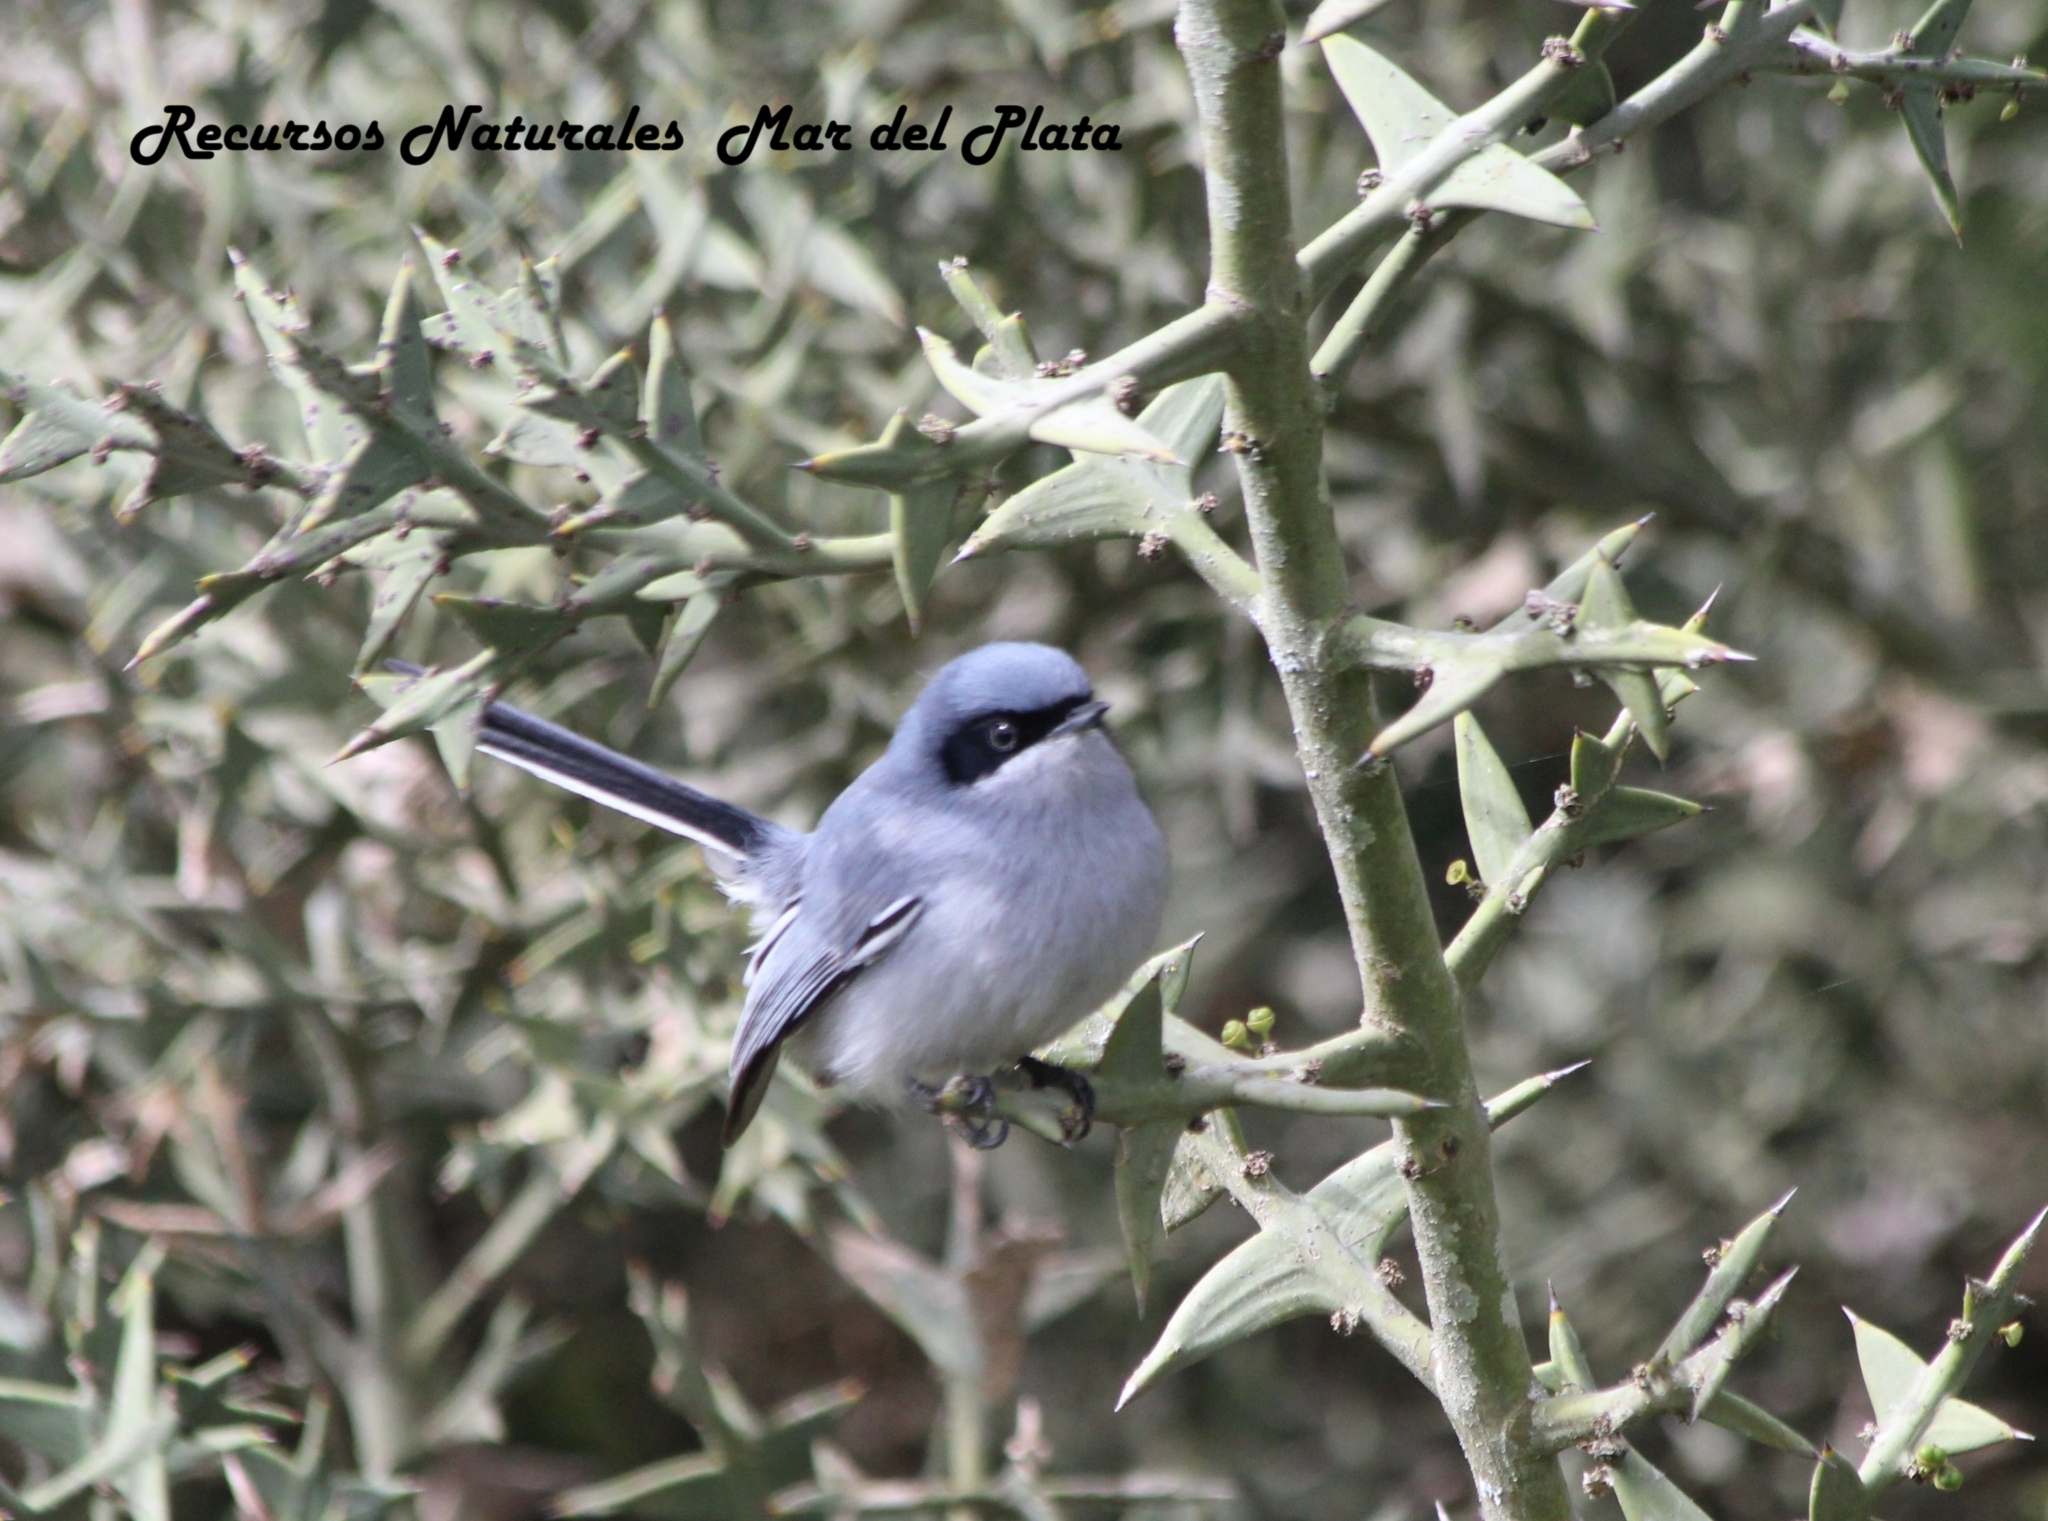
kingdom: Animalia
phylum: Chordata
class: Aves
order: Passeriformes
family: Polioptilidae
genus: Polioptila
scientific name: Polioptila dumicola
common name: Masked gnatcatcher
